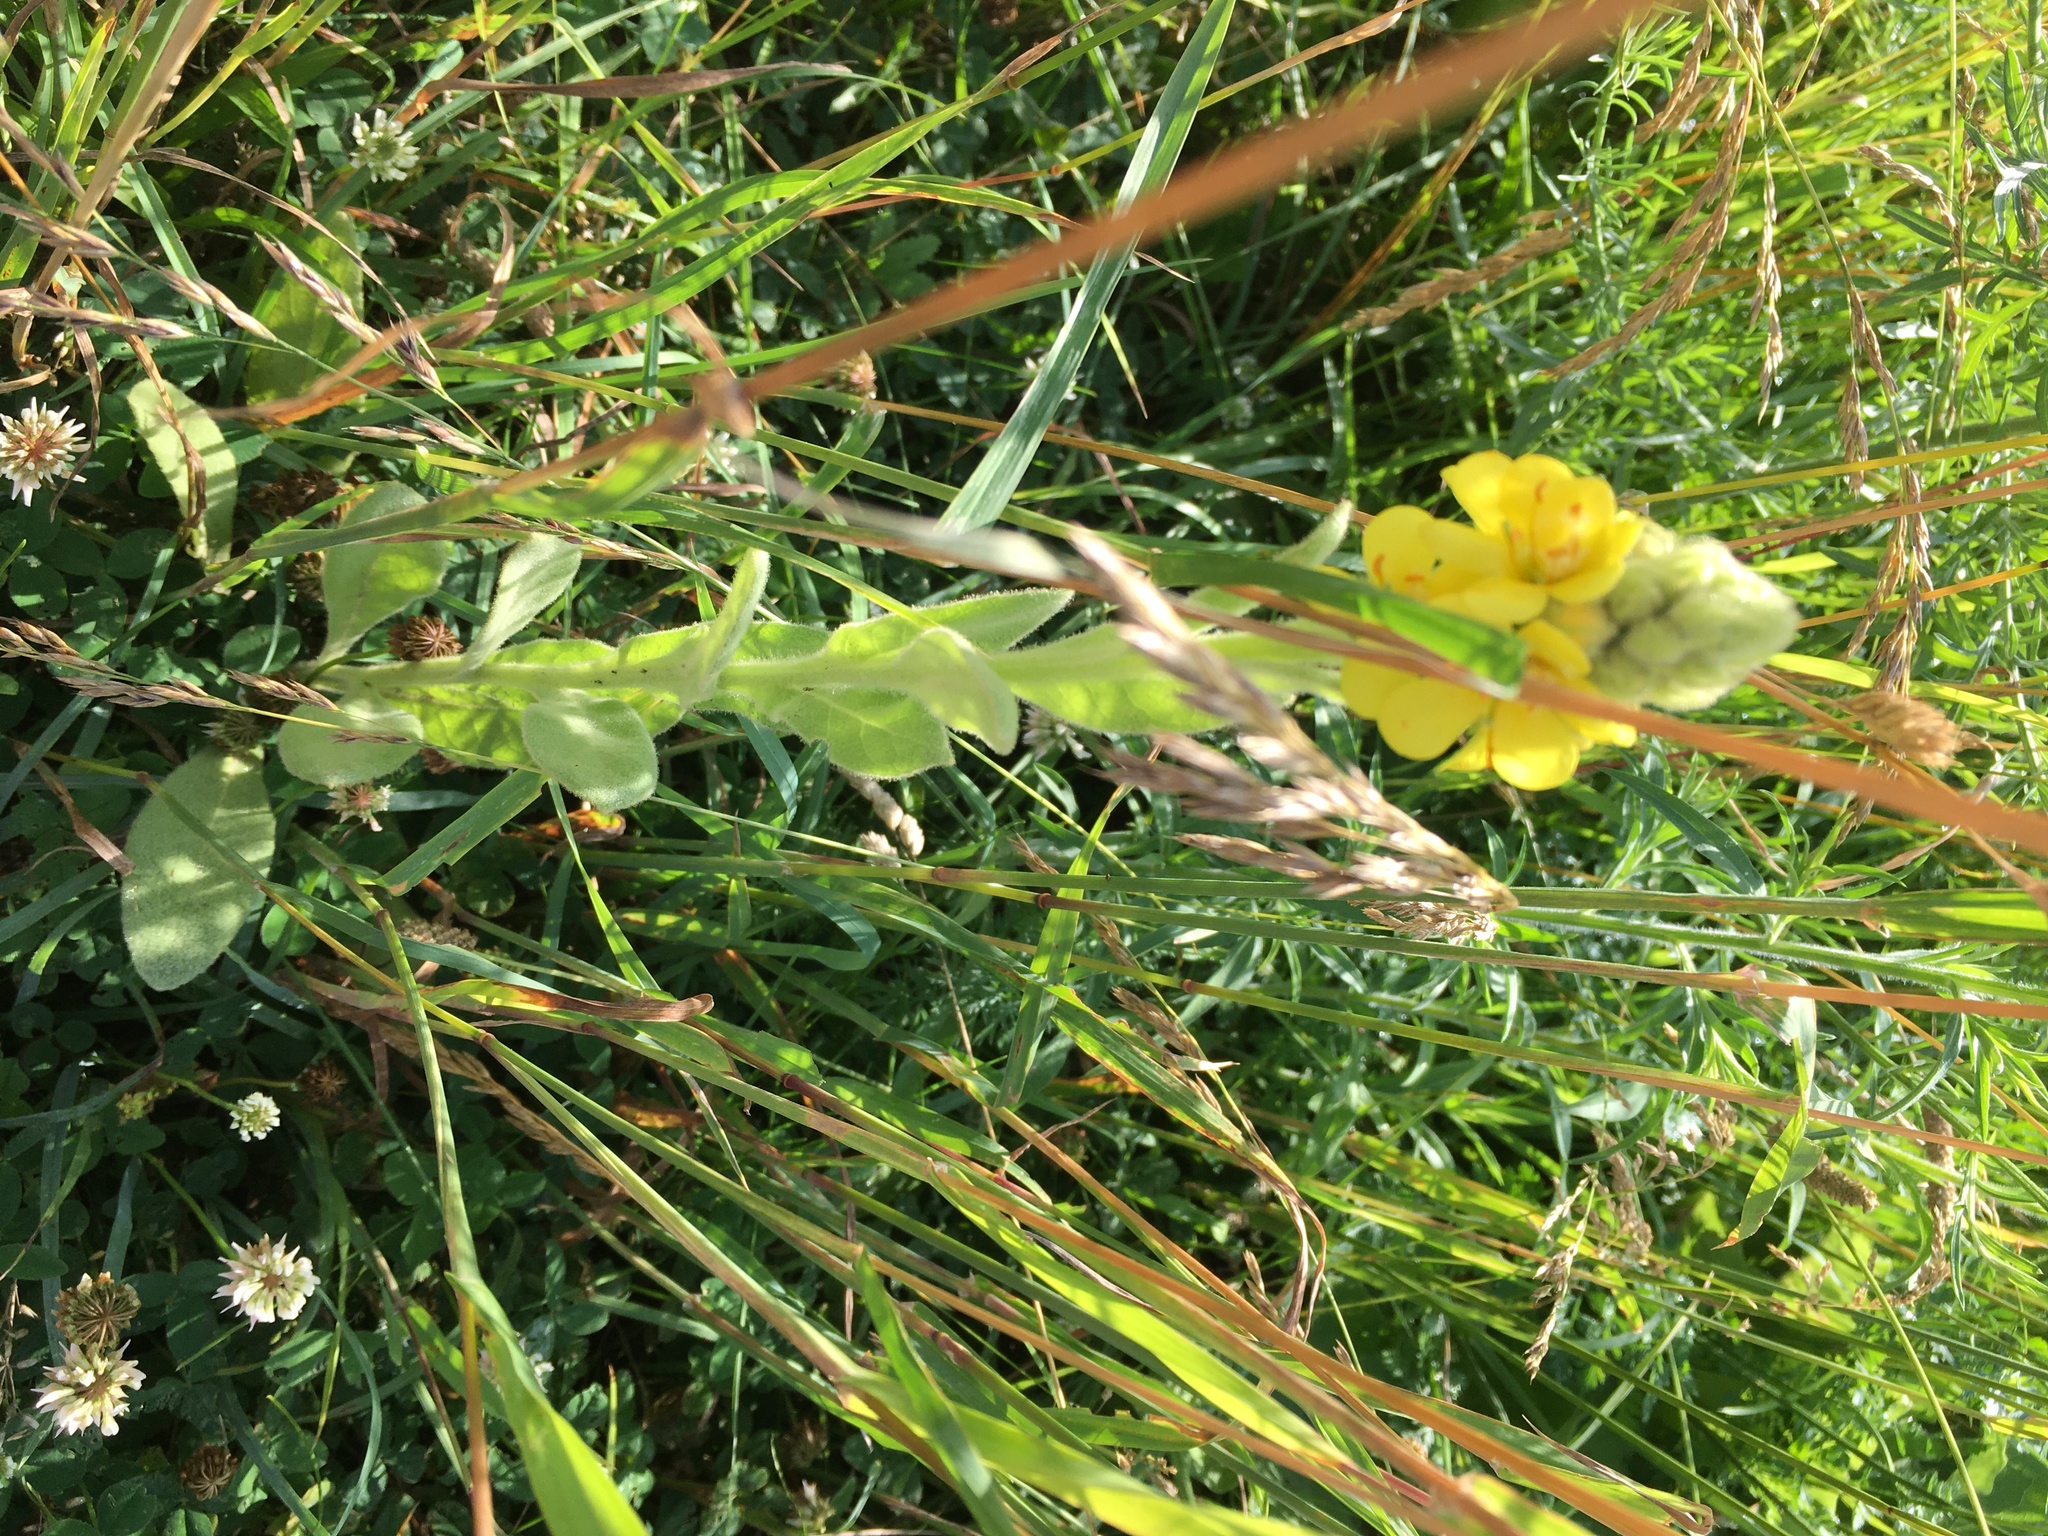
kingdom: Plantae
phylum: Tracheophyta
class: Magnoliopsida
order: Lamiales
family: Scrophulariaceae
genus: Verbascum
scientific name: Verbascum thapsus
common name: Common mullein
